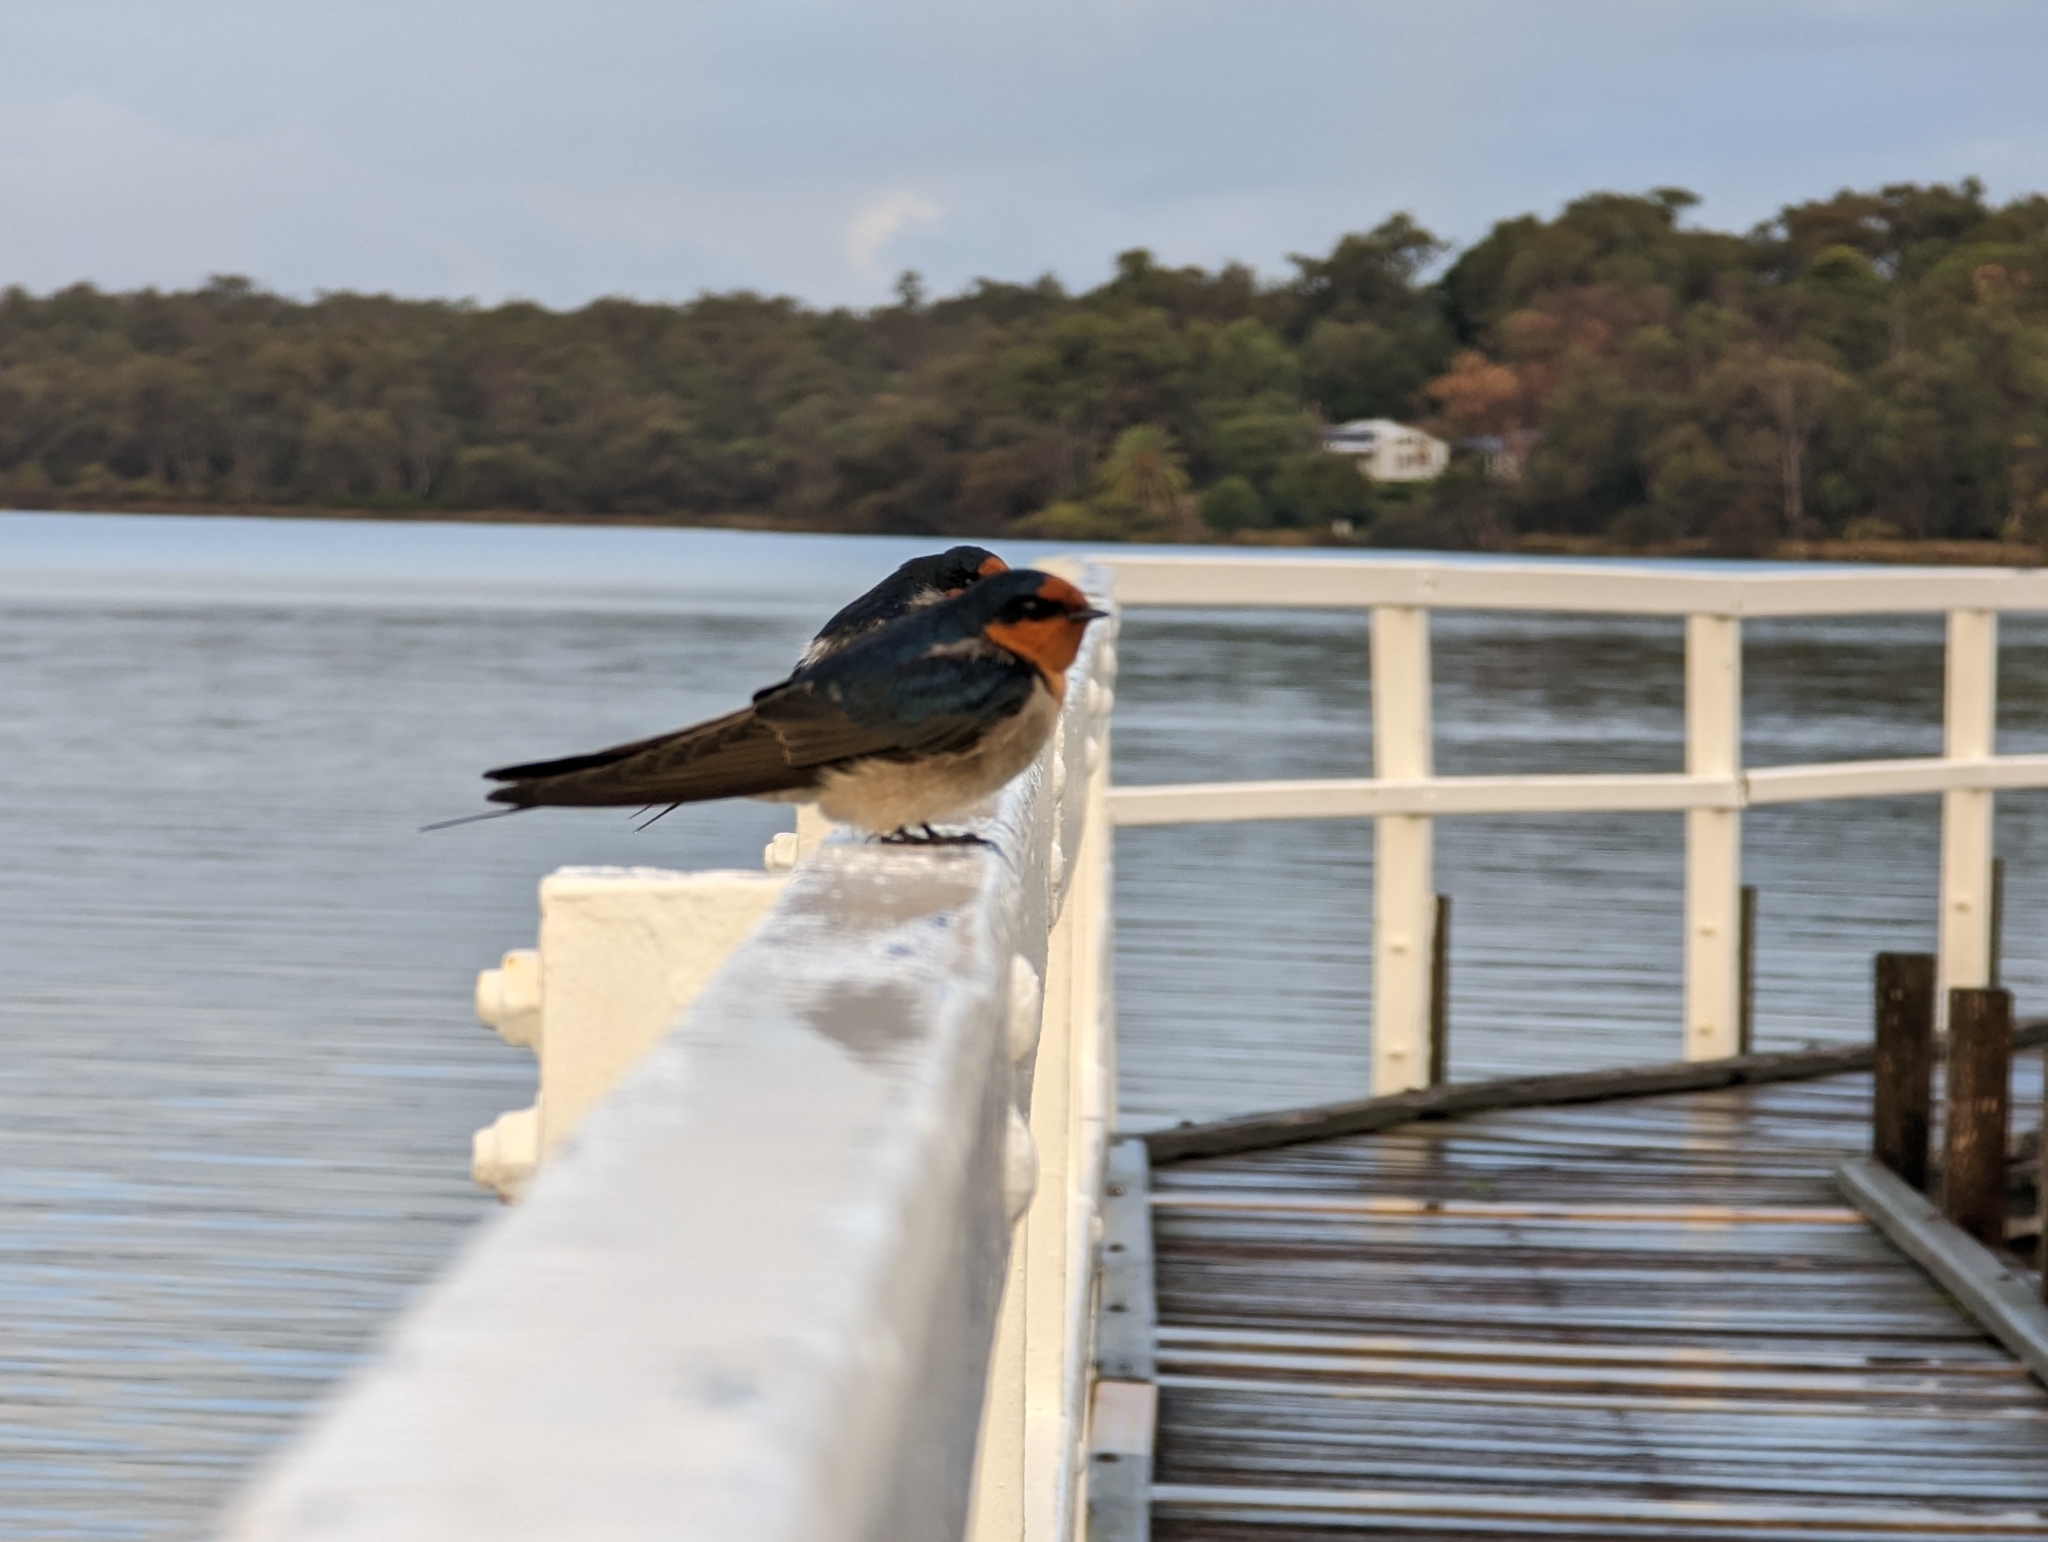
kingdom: Animalia
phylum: Chordata
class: Aves
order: Passeriformes
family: Hirundinidae
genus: Hirundo
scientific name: Hirundo neoxena
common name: Welcome swallow
